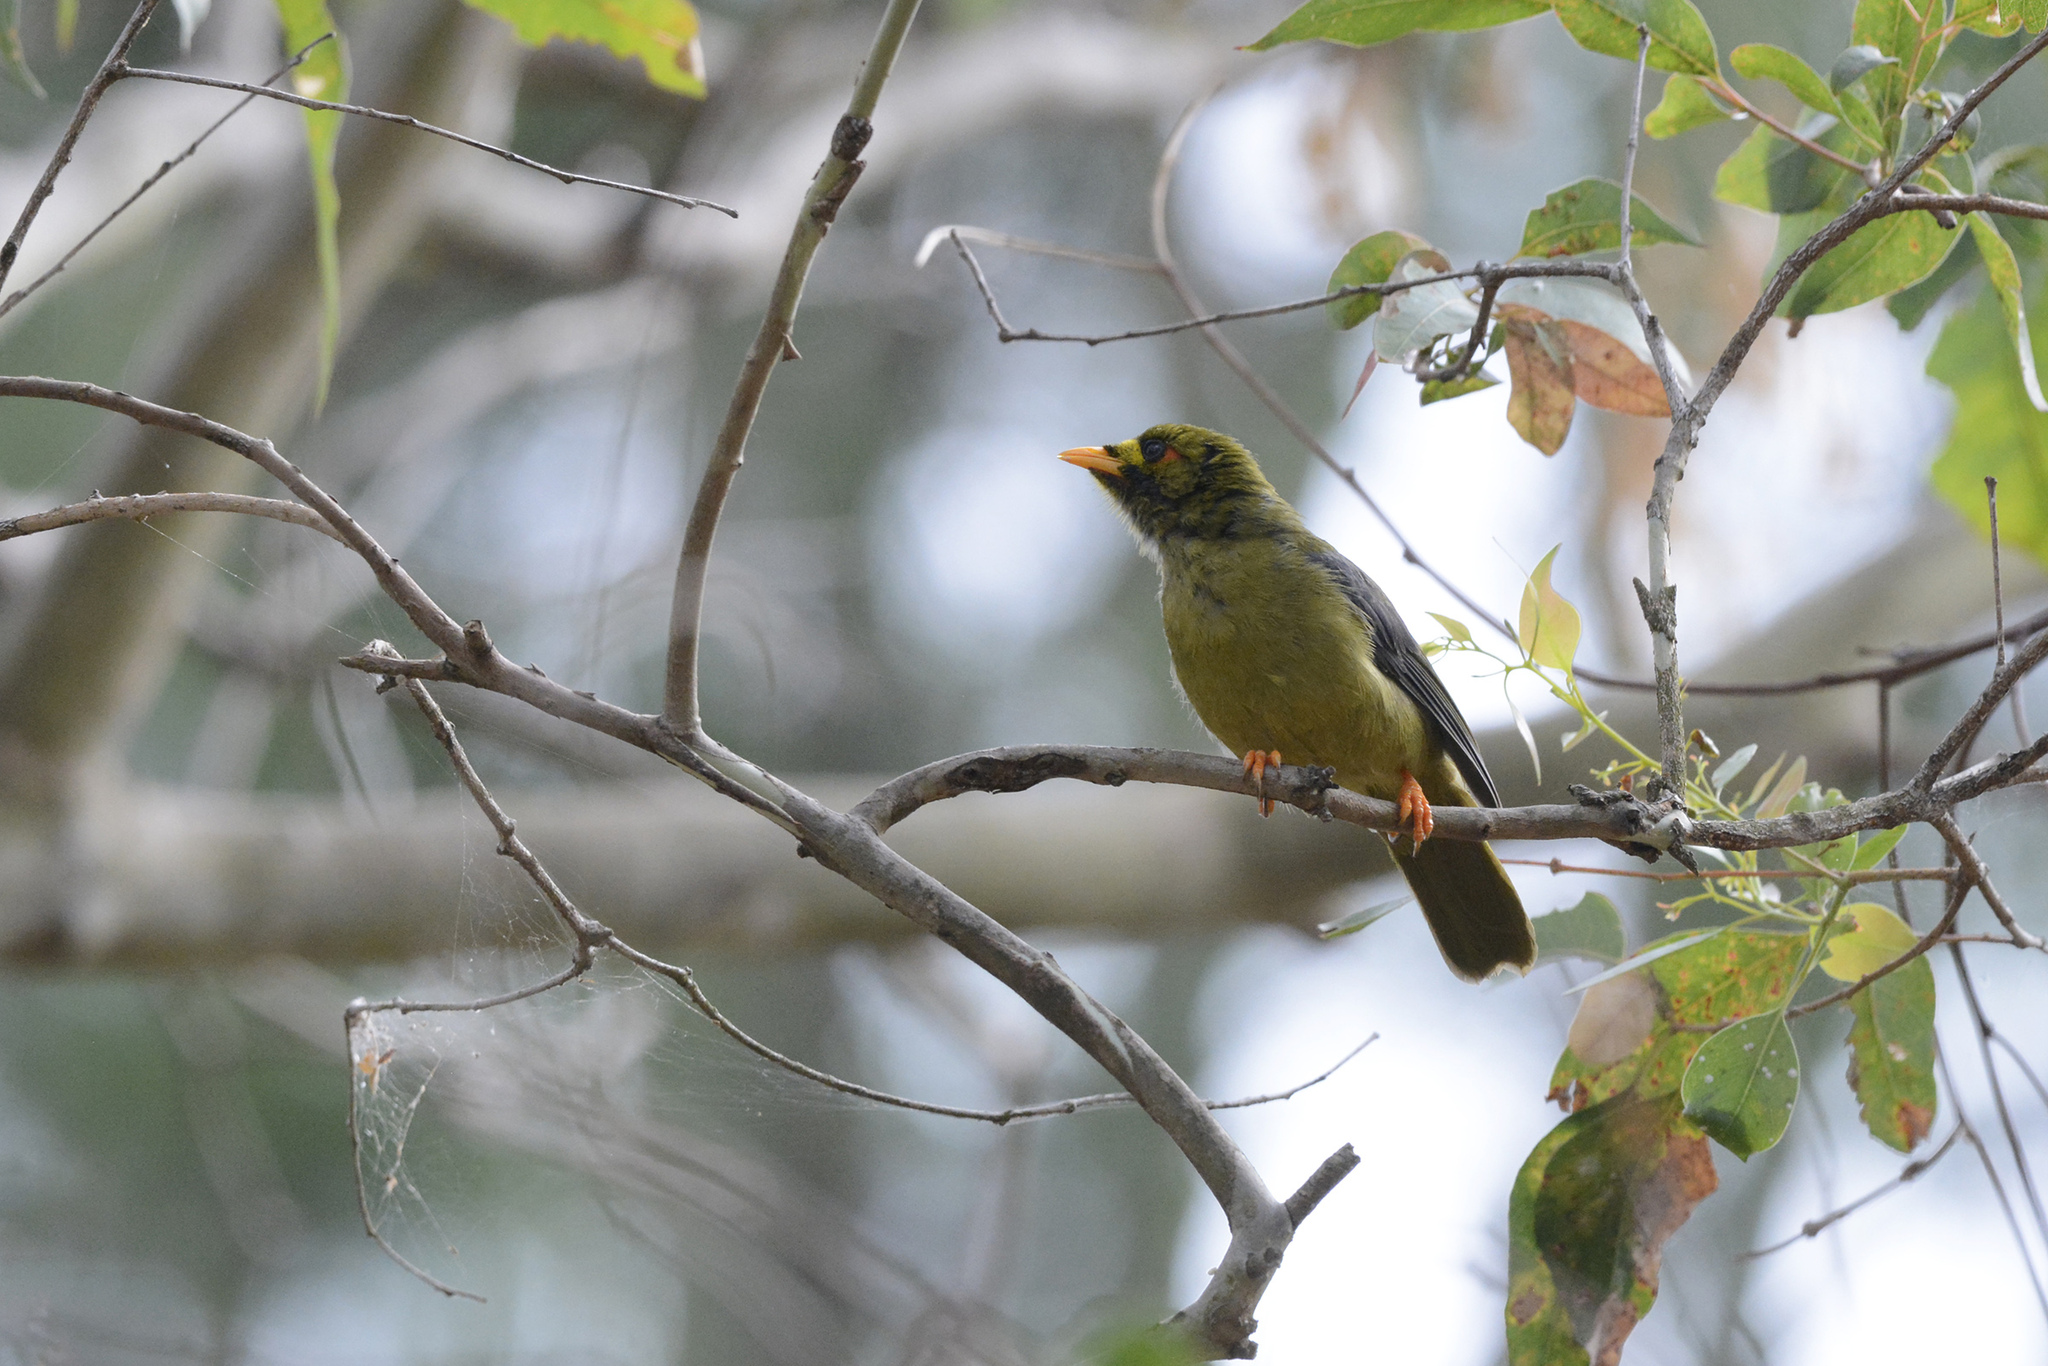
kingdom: Animalia
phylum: Chordata
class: Aves
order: Passeriformes
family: Meliphagidae
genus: Manorina
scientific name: Manorina melanophrys
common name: Bell miner
